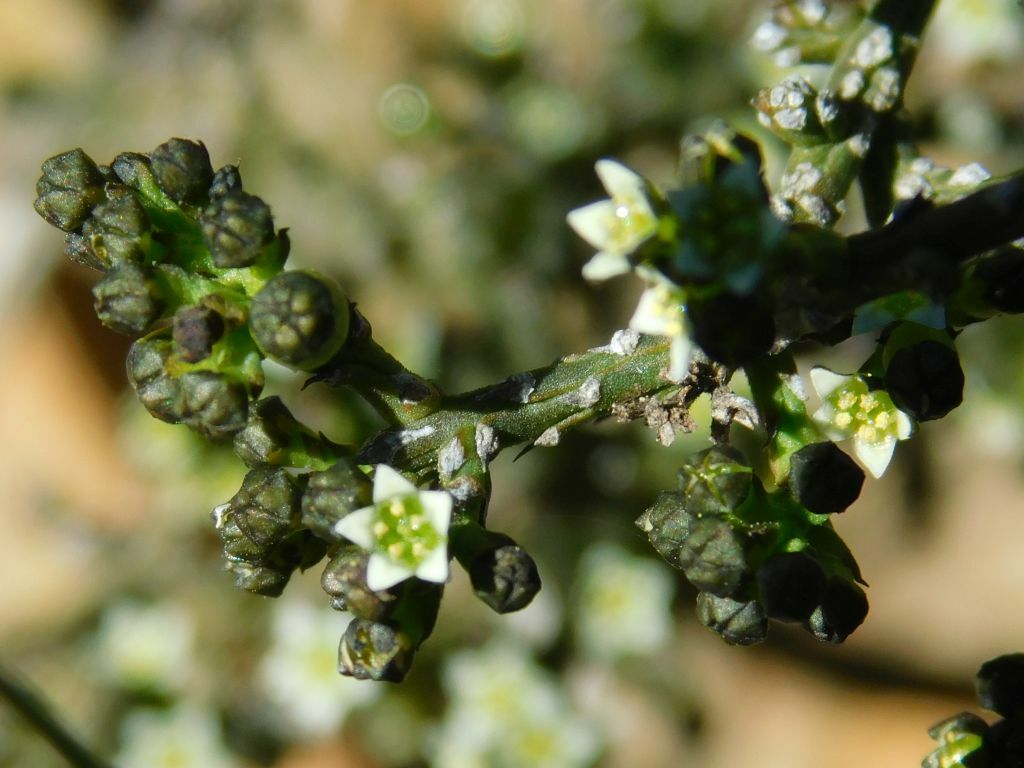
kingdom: Plantae
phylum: Tracheophyta
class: Magnoliopsida
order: Santalales
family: Thesiaceae
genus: Thesium
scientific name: Thesium nigroperianthum
